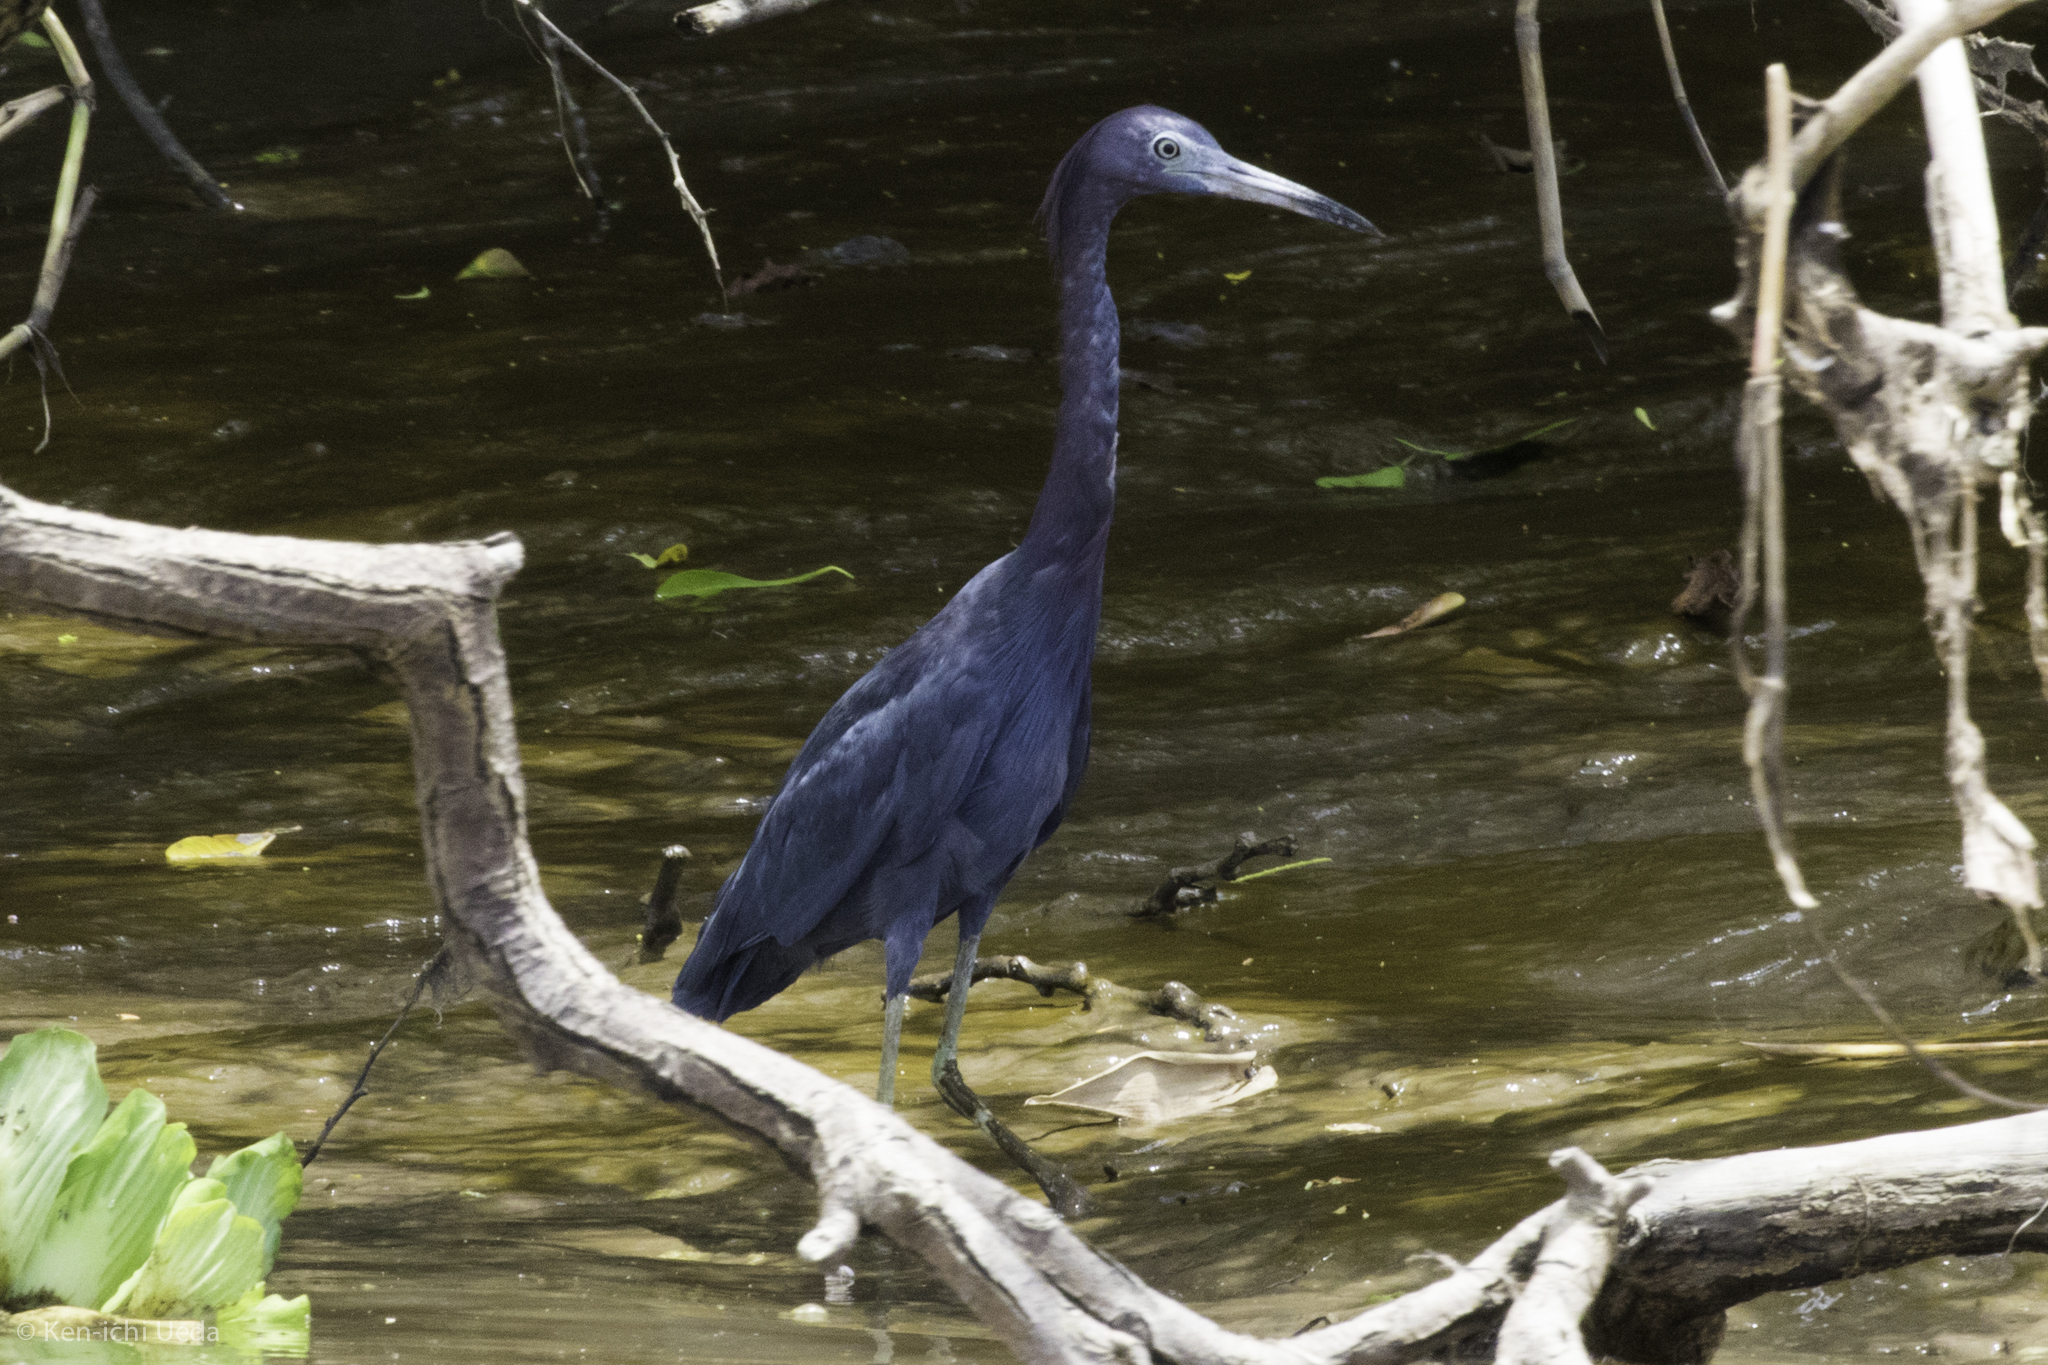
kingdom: Animalia
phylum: Chordata
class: Aves
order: Pelecaniformes
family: Ardeidae
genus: Egretta
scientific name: Egretta caerulea
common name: Little blue heron
